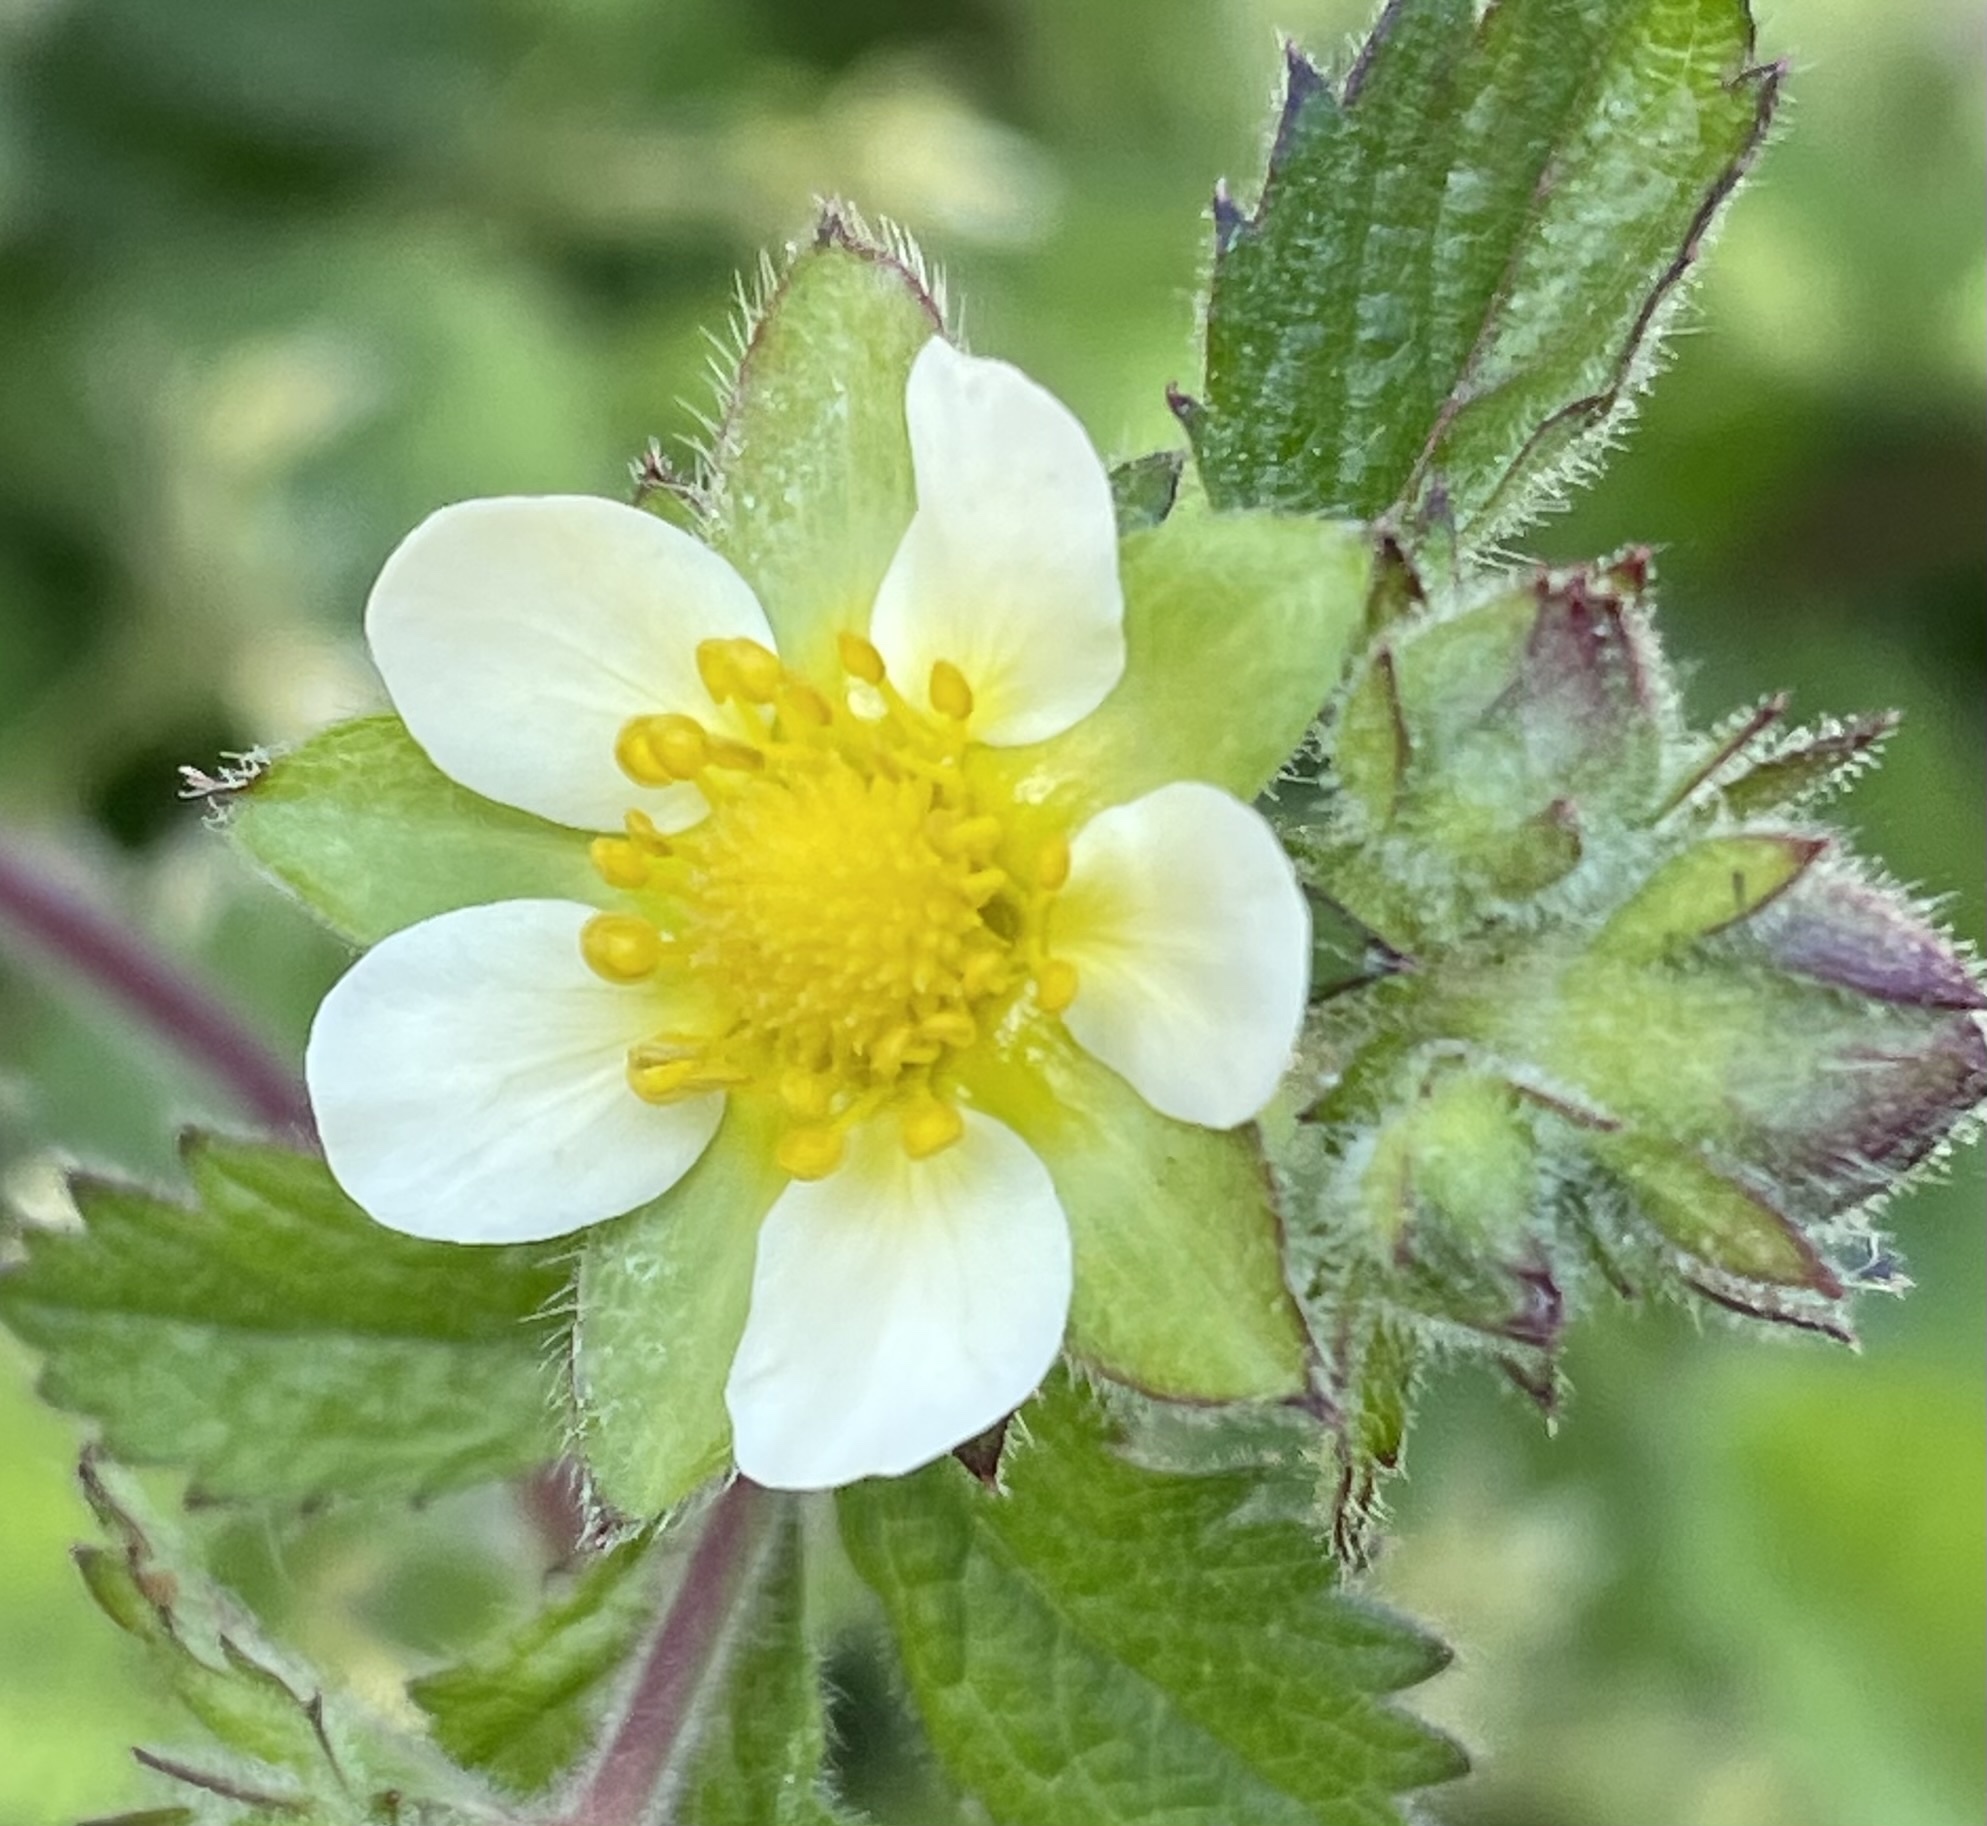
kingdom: Plantae
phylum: Tracheophyta
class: Magnoliopsida
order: Rosales
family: Rosaceae
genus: Drymocallis
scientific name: Drymocallis glandulosa
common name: Sticky cinquefoil
